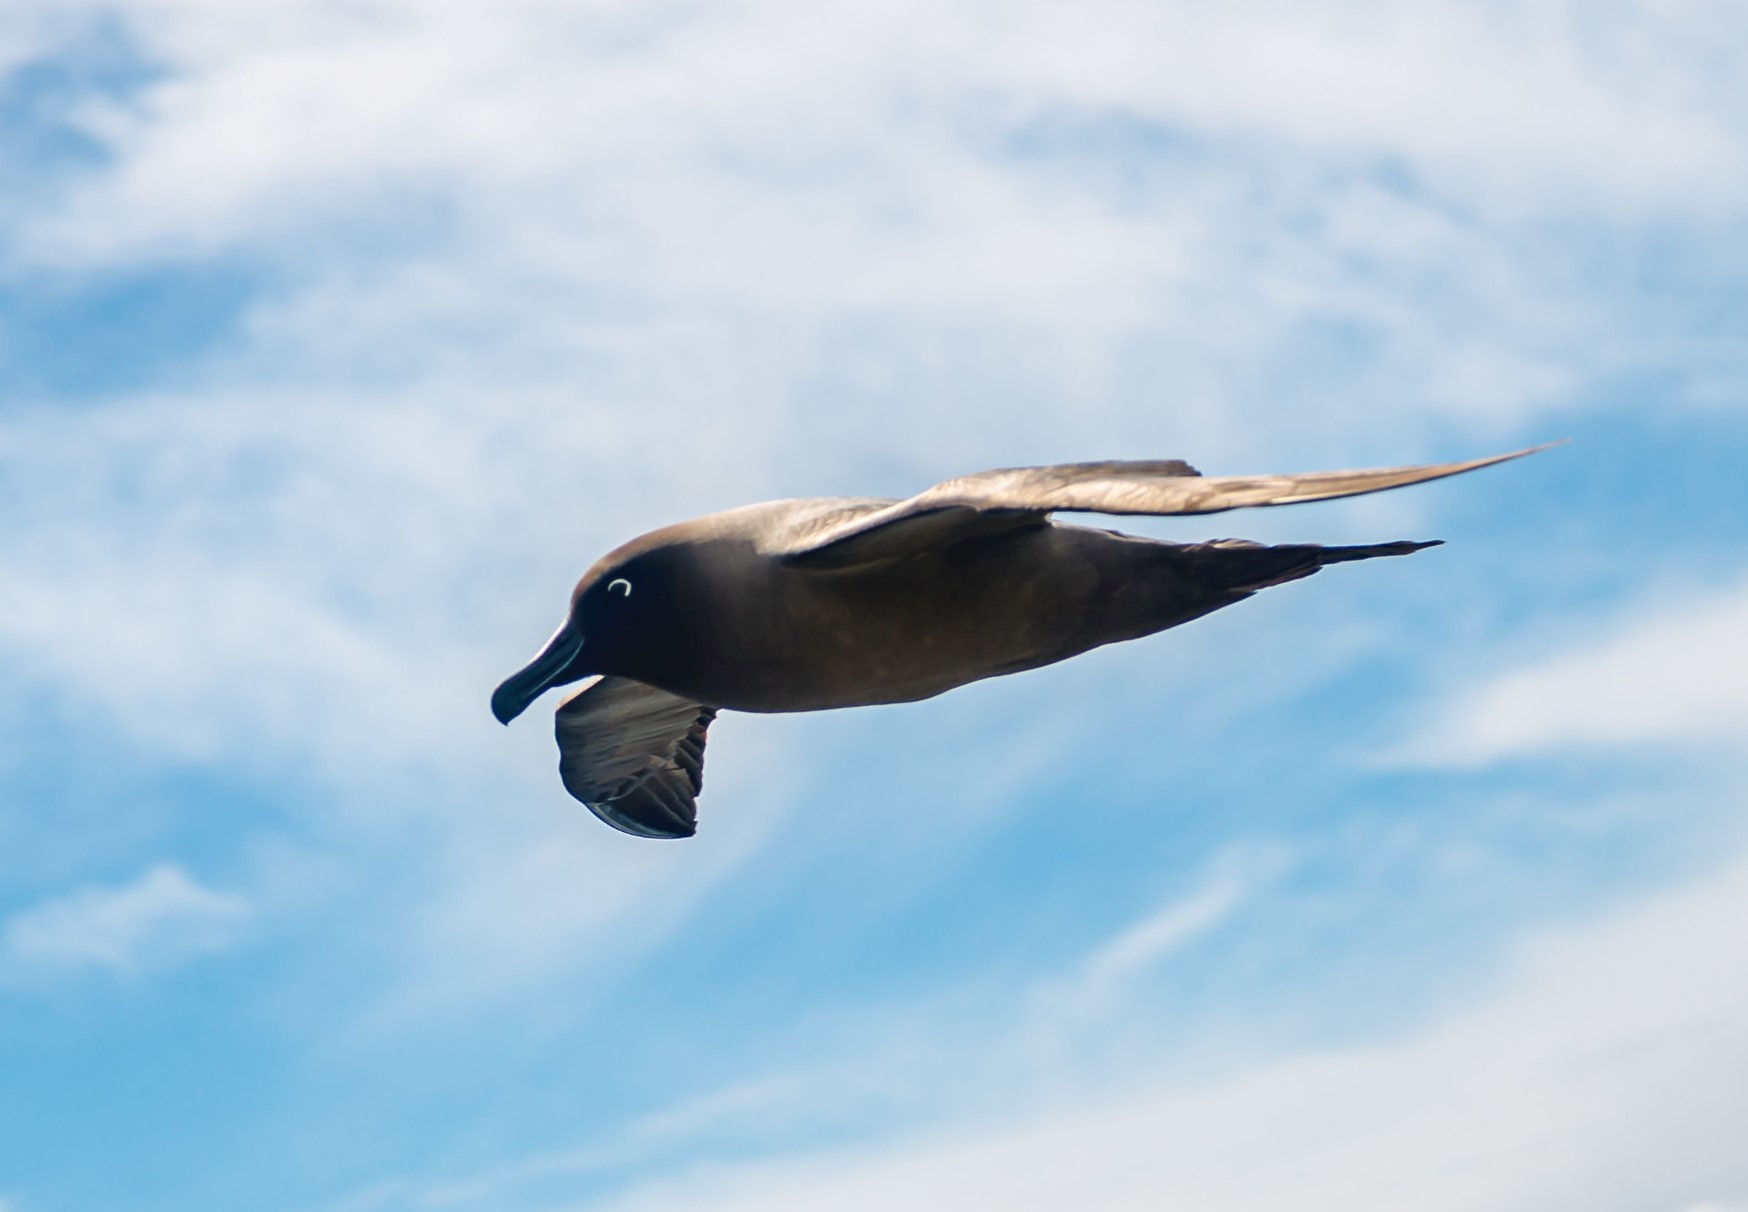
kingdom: Animalia
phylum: Chordata
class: Aves
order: Procellariiformes
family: Diomedeidae
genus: Phoebetria
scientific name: Phoebetria palpebrata
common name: Light-mantled albatross
